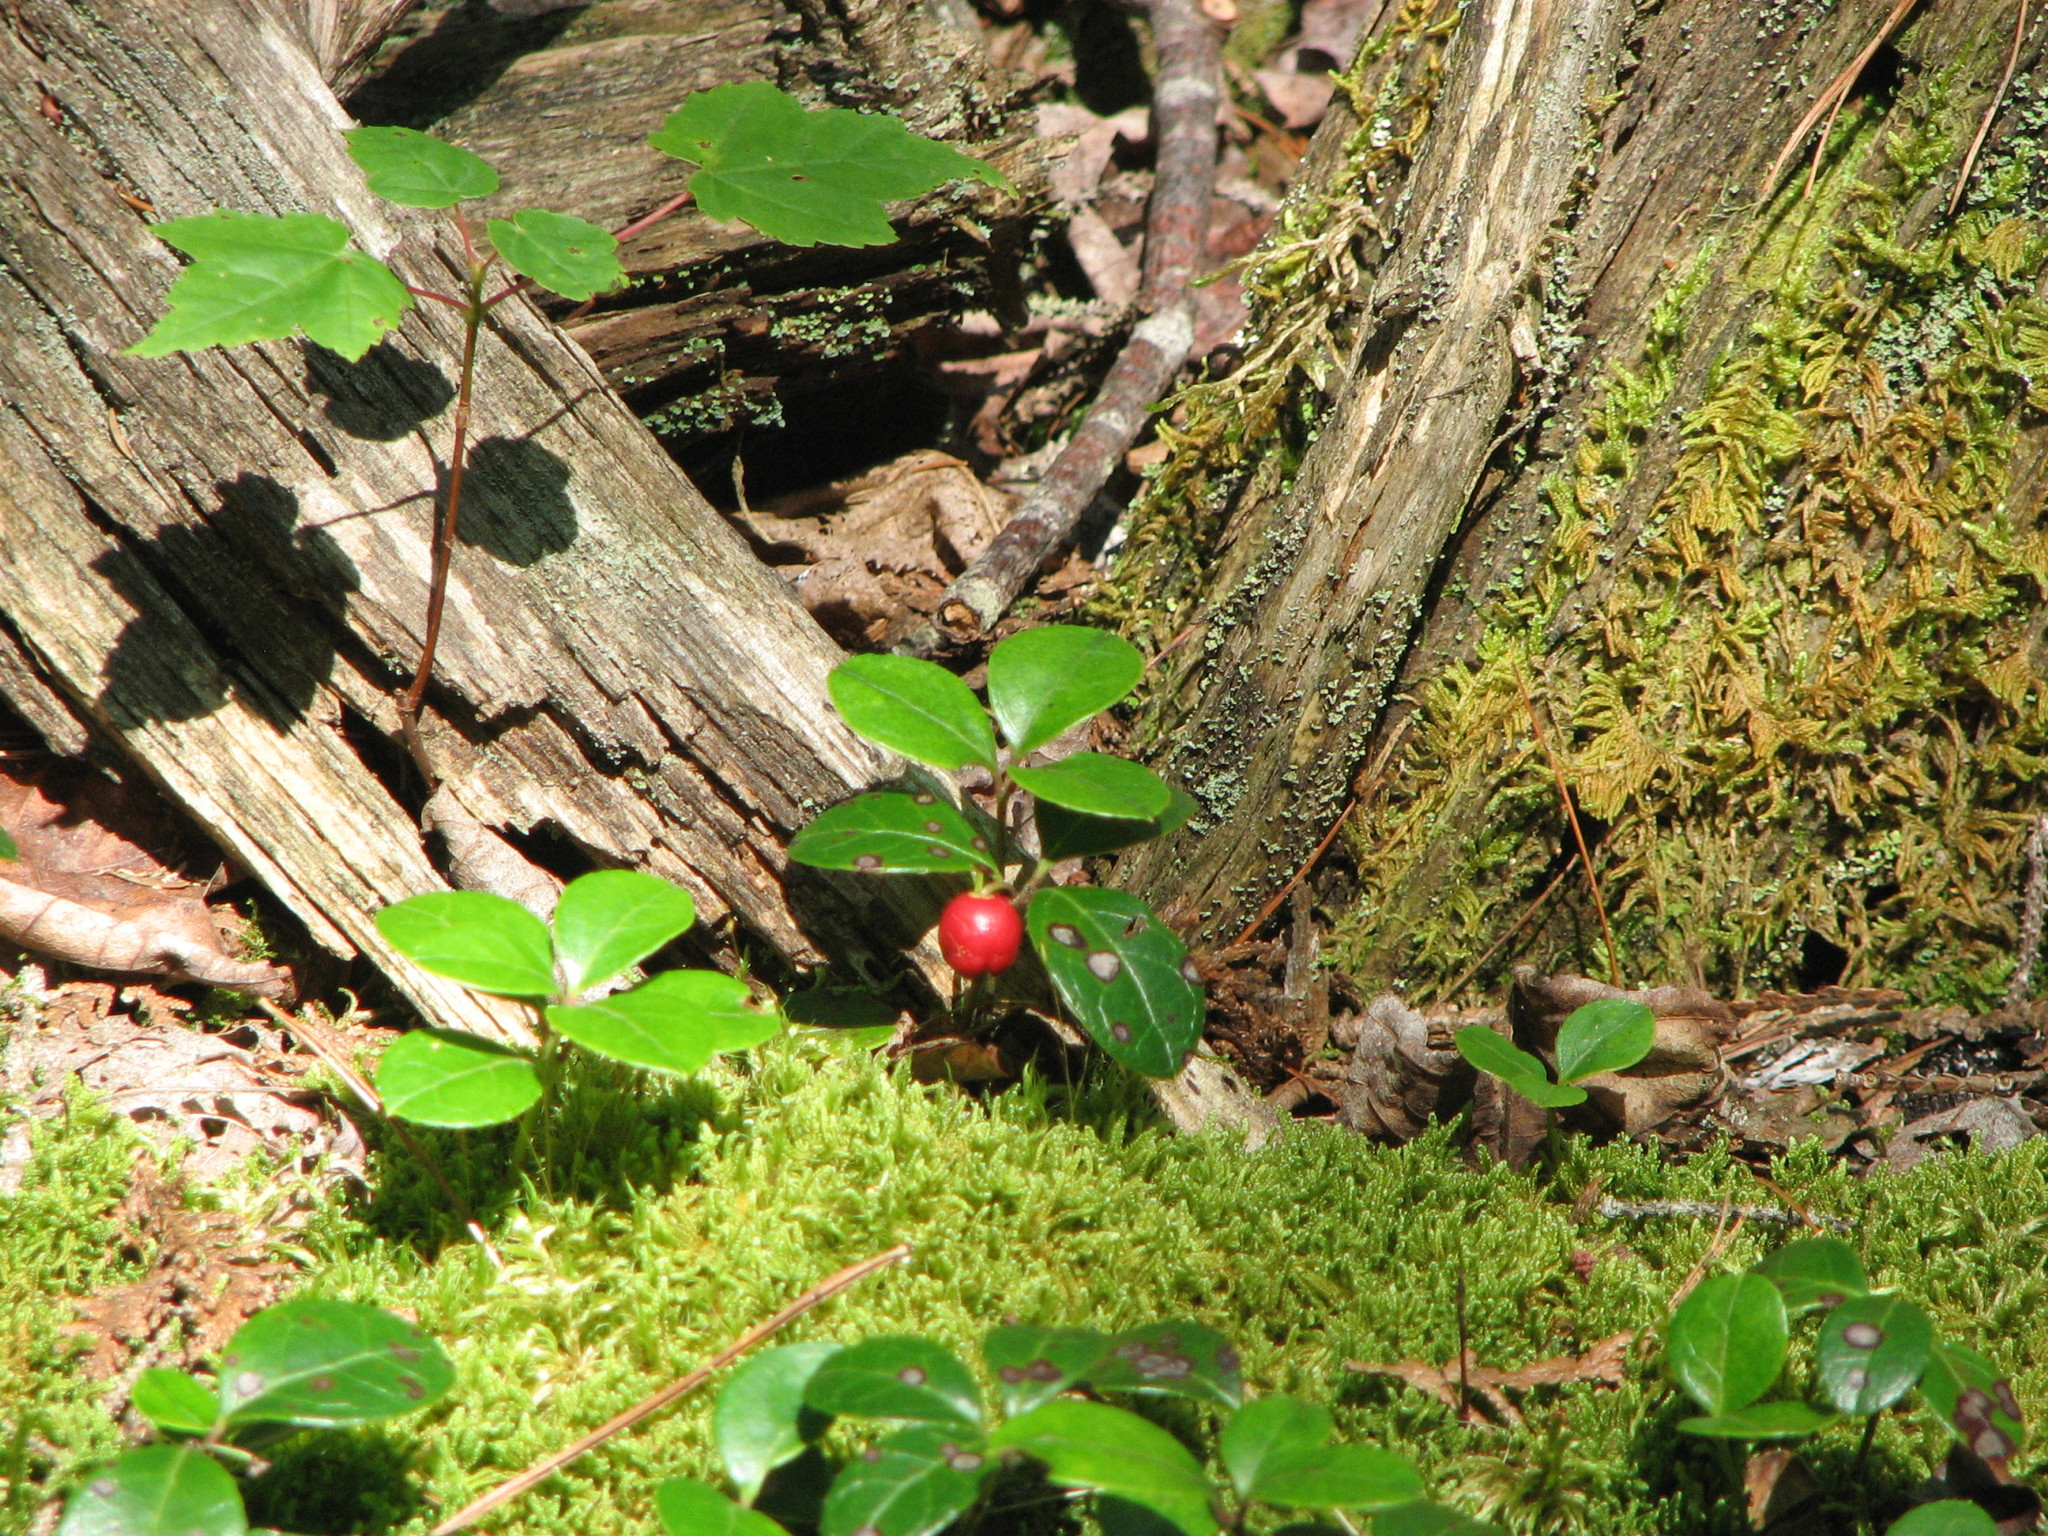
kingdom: Plantae
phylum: Tracheophyta
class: Magnoliopsida
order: Ericales
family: Ericaceae
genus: Gaultheria
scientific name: Gaultheria procumbens
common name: Checkerberry
